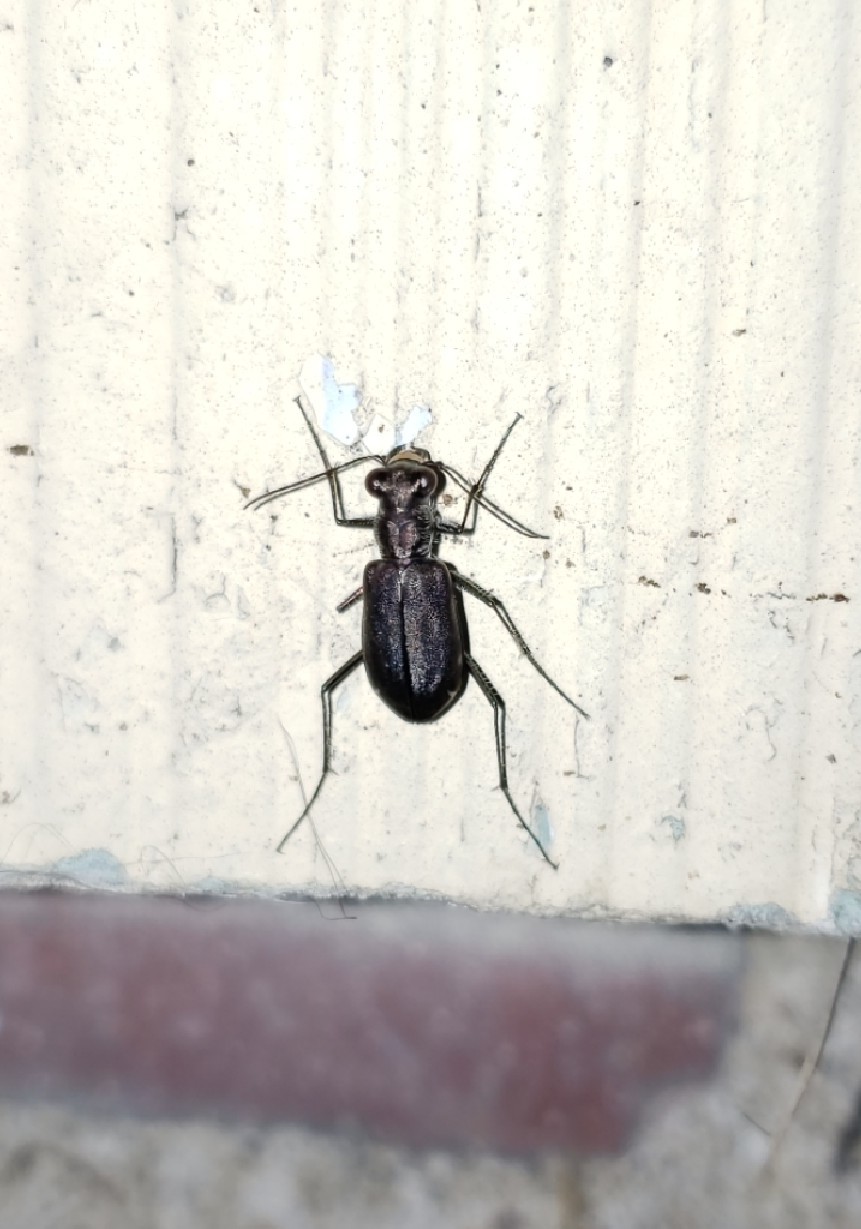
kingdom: Animalia
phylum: Arthropoda
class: Insecta
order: Coleoptera
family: Carabidae
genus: Cicindela
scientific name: Cicindela punctulata
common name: Punctured tiger beetle
